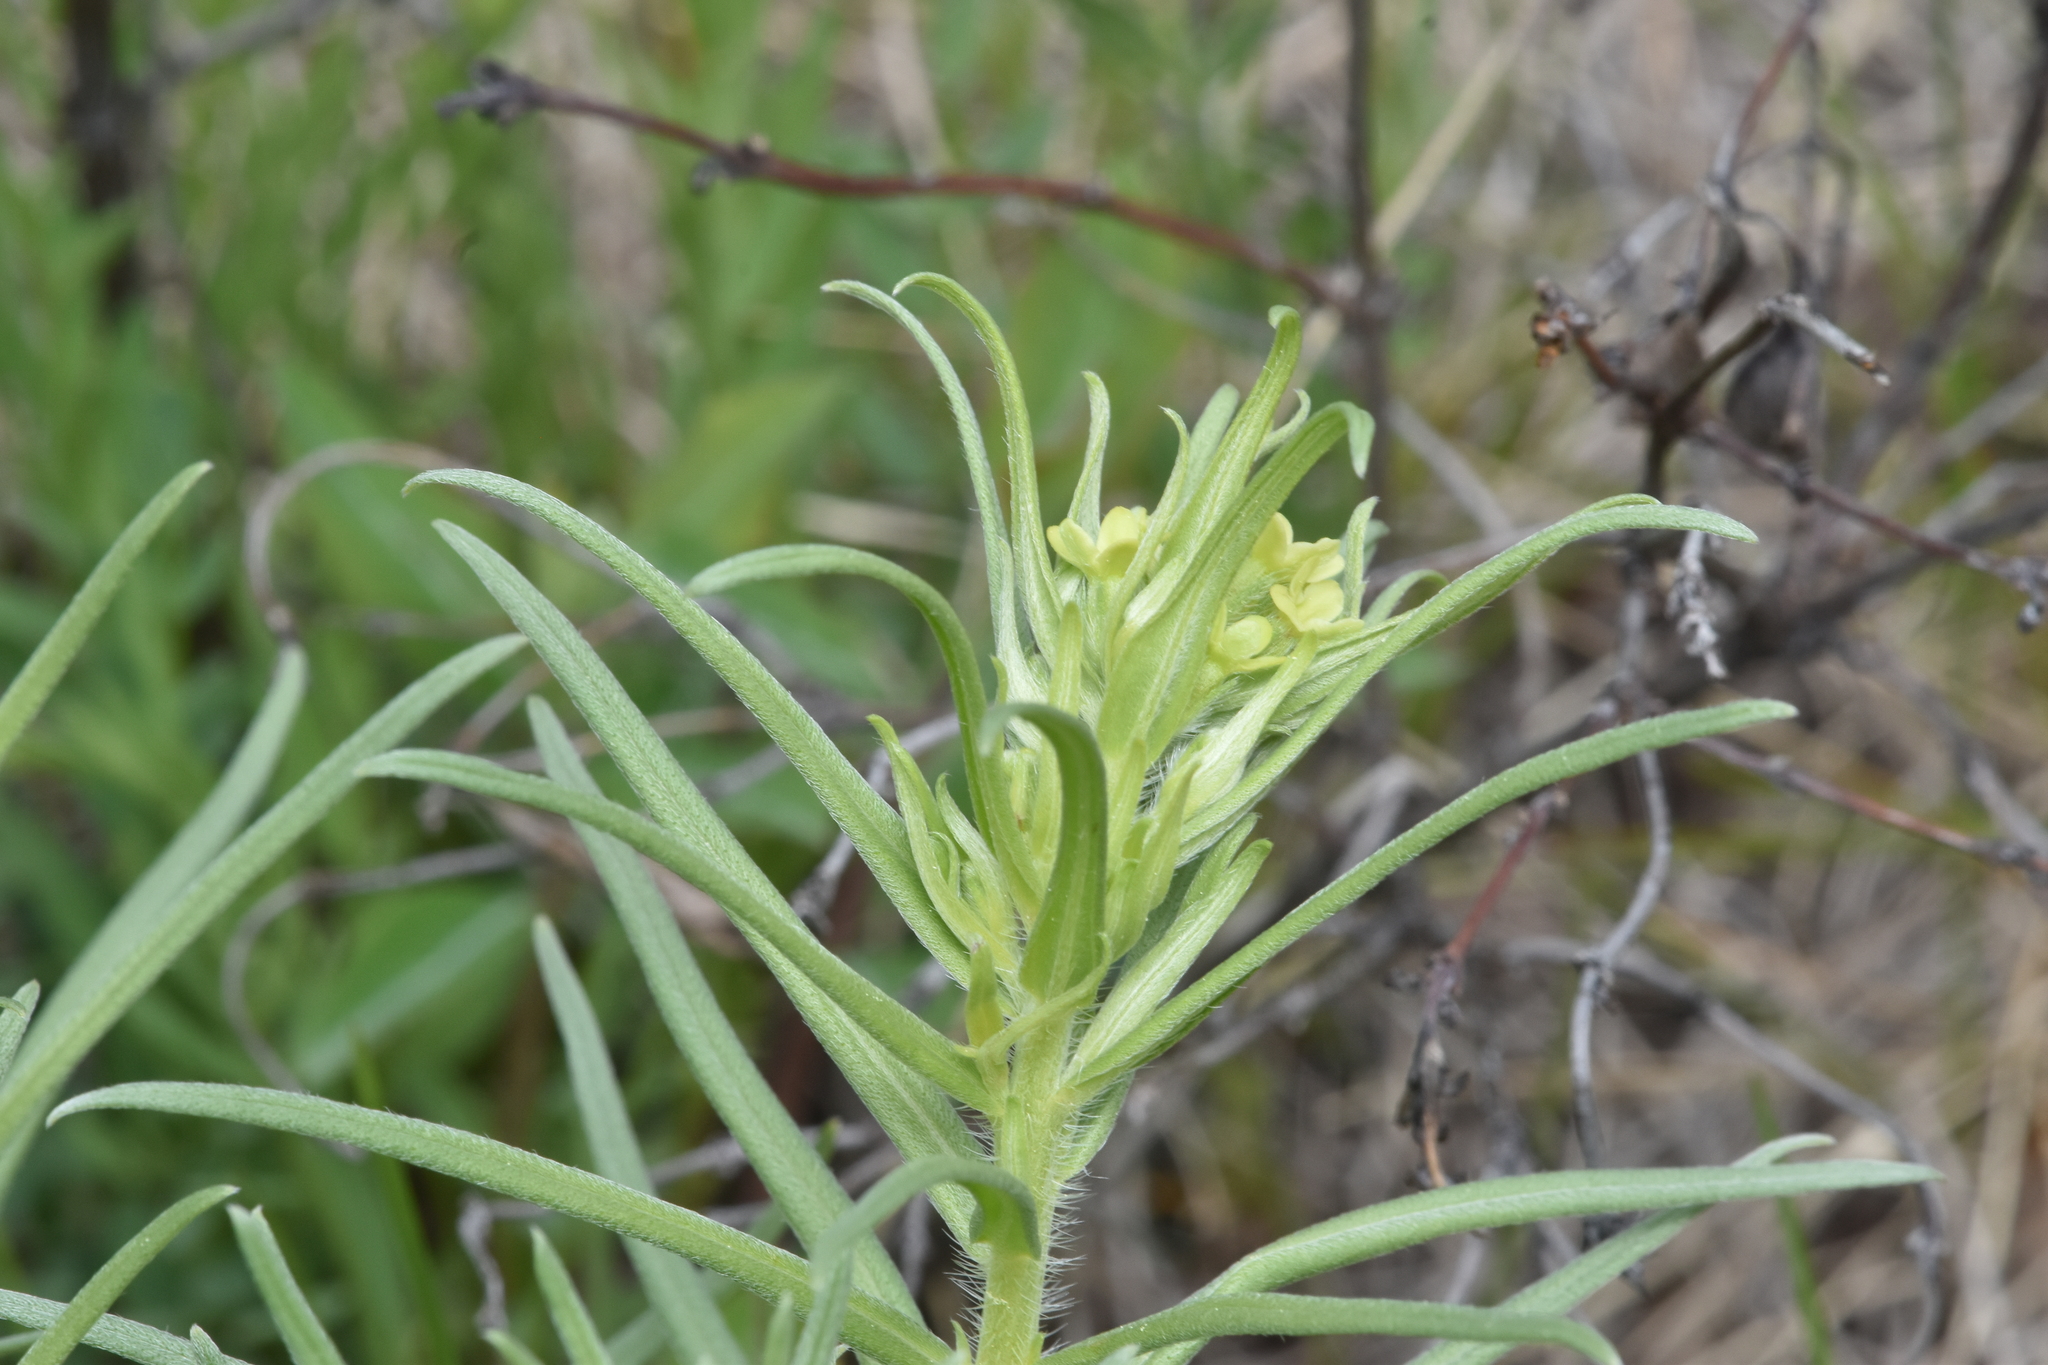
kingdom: Plantae
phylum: Tracheophyta
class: Magnoliopsida
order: Boraginales
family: Boraginaceae
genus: Lithospermum
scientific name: Lithospermum ruderale
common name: Western gromwell
